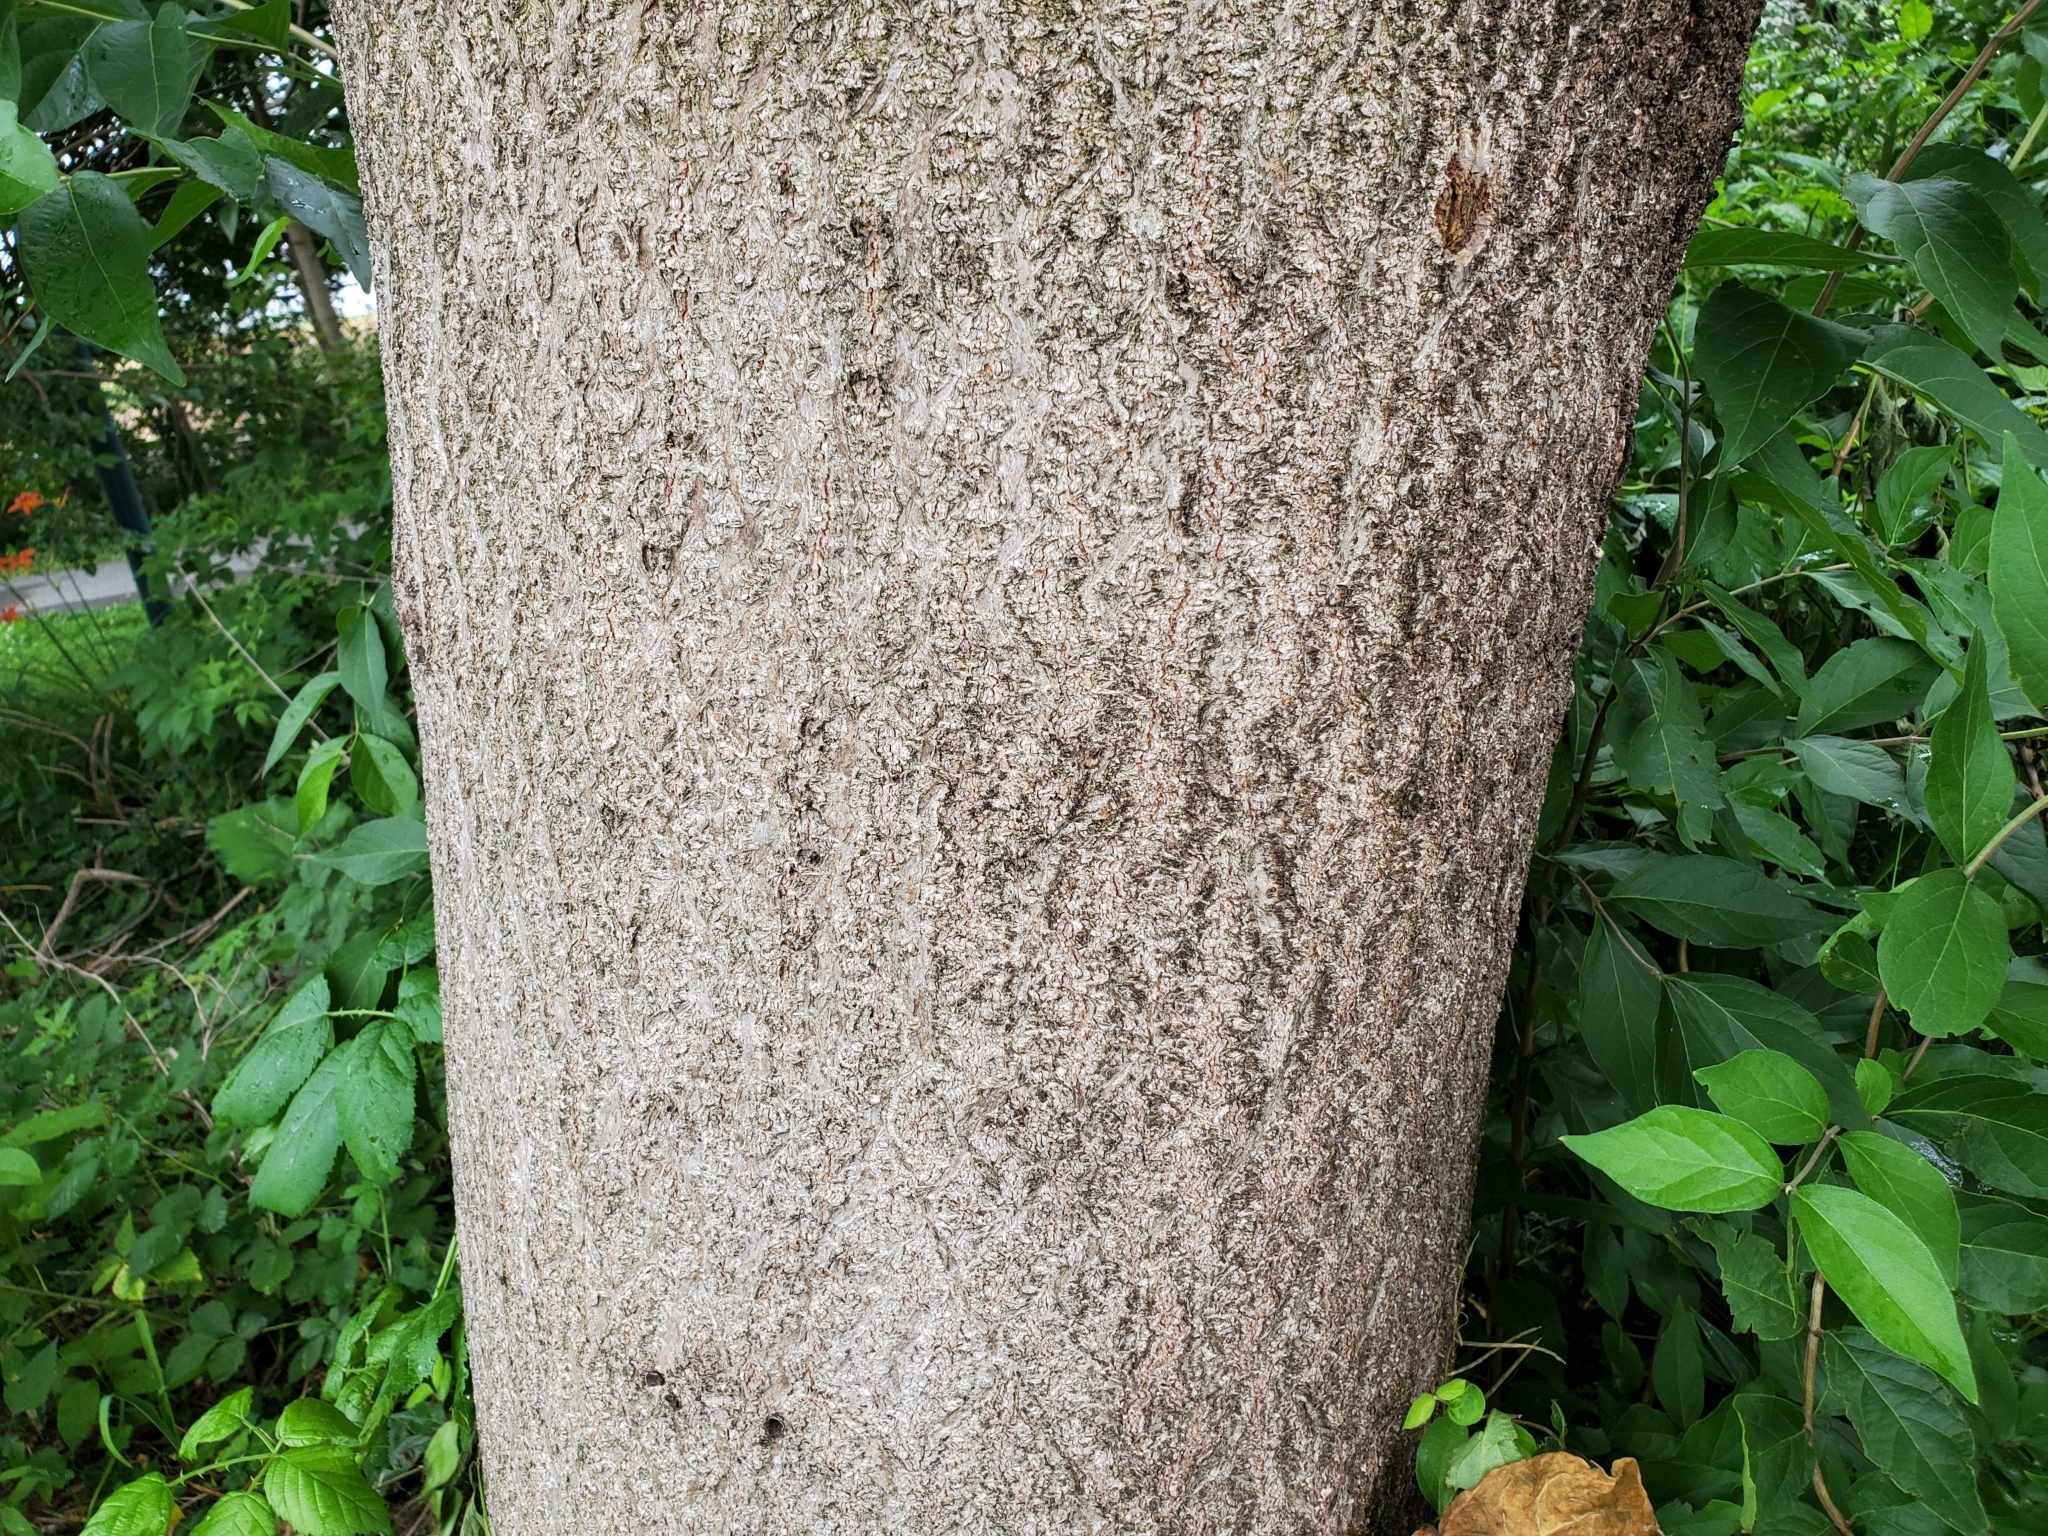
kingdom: Plantae
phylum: Tracheophyta
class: Magnoliopsida
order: Lamiales
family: Paulowniaceae
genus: Paulownia
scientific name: Paulownia tomentosa
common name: Foxglove-tree
